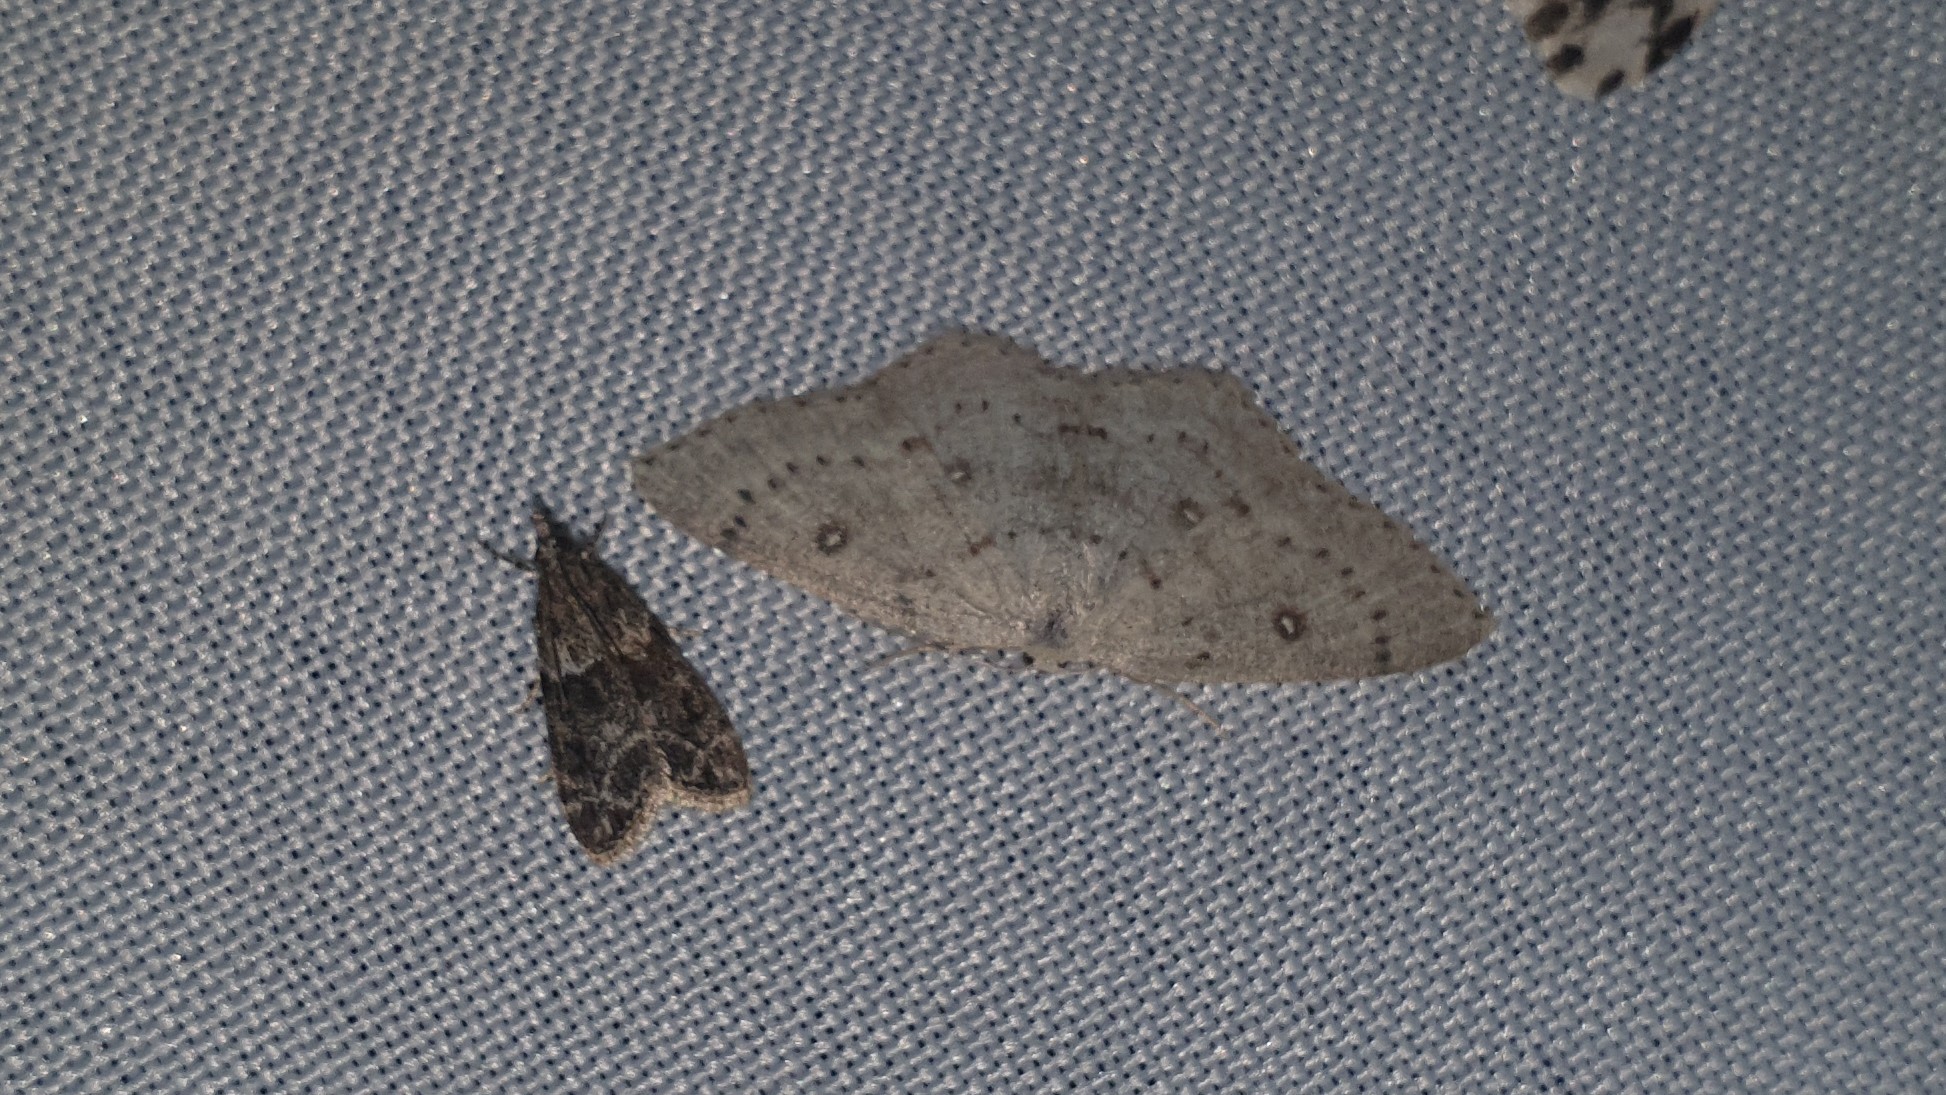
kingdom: Animalia
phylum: Arthropoda
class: Insecta
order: Lepidoptera
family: Geometridae
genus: Cyclophora
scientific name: Cyclophora albipunctata
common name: Birch mocha
